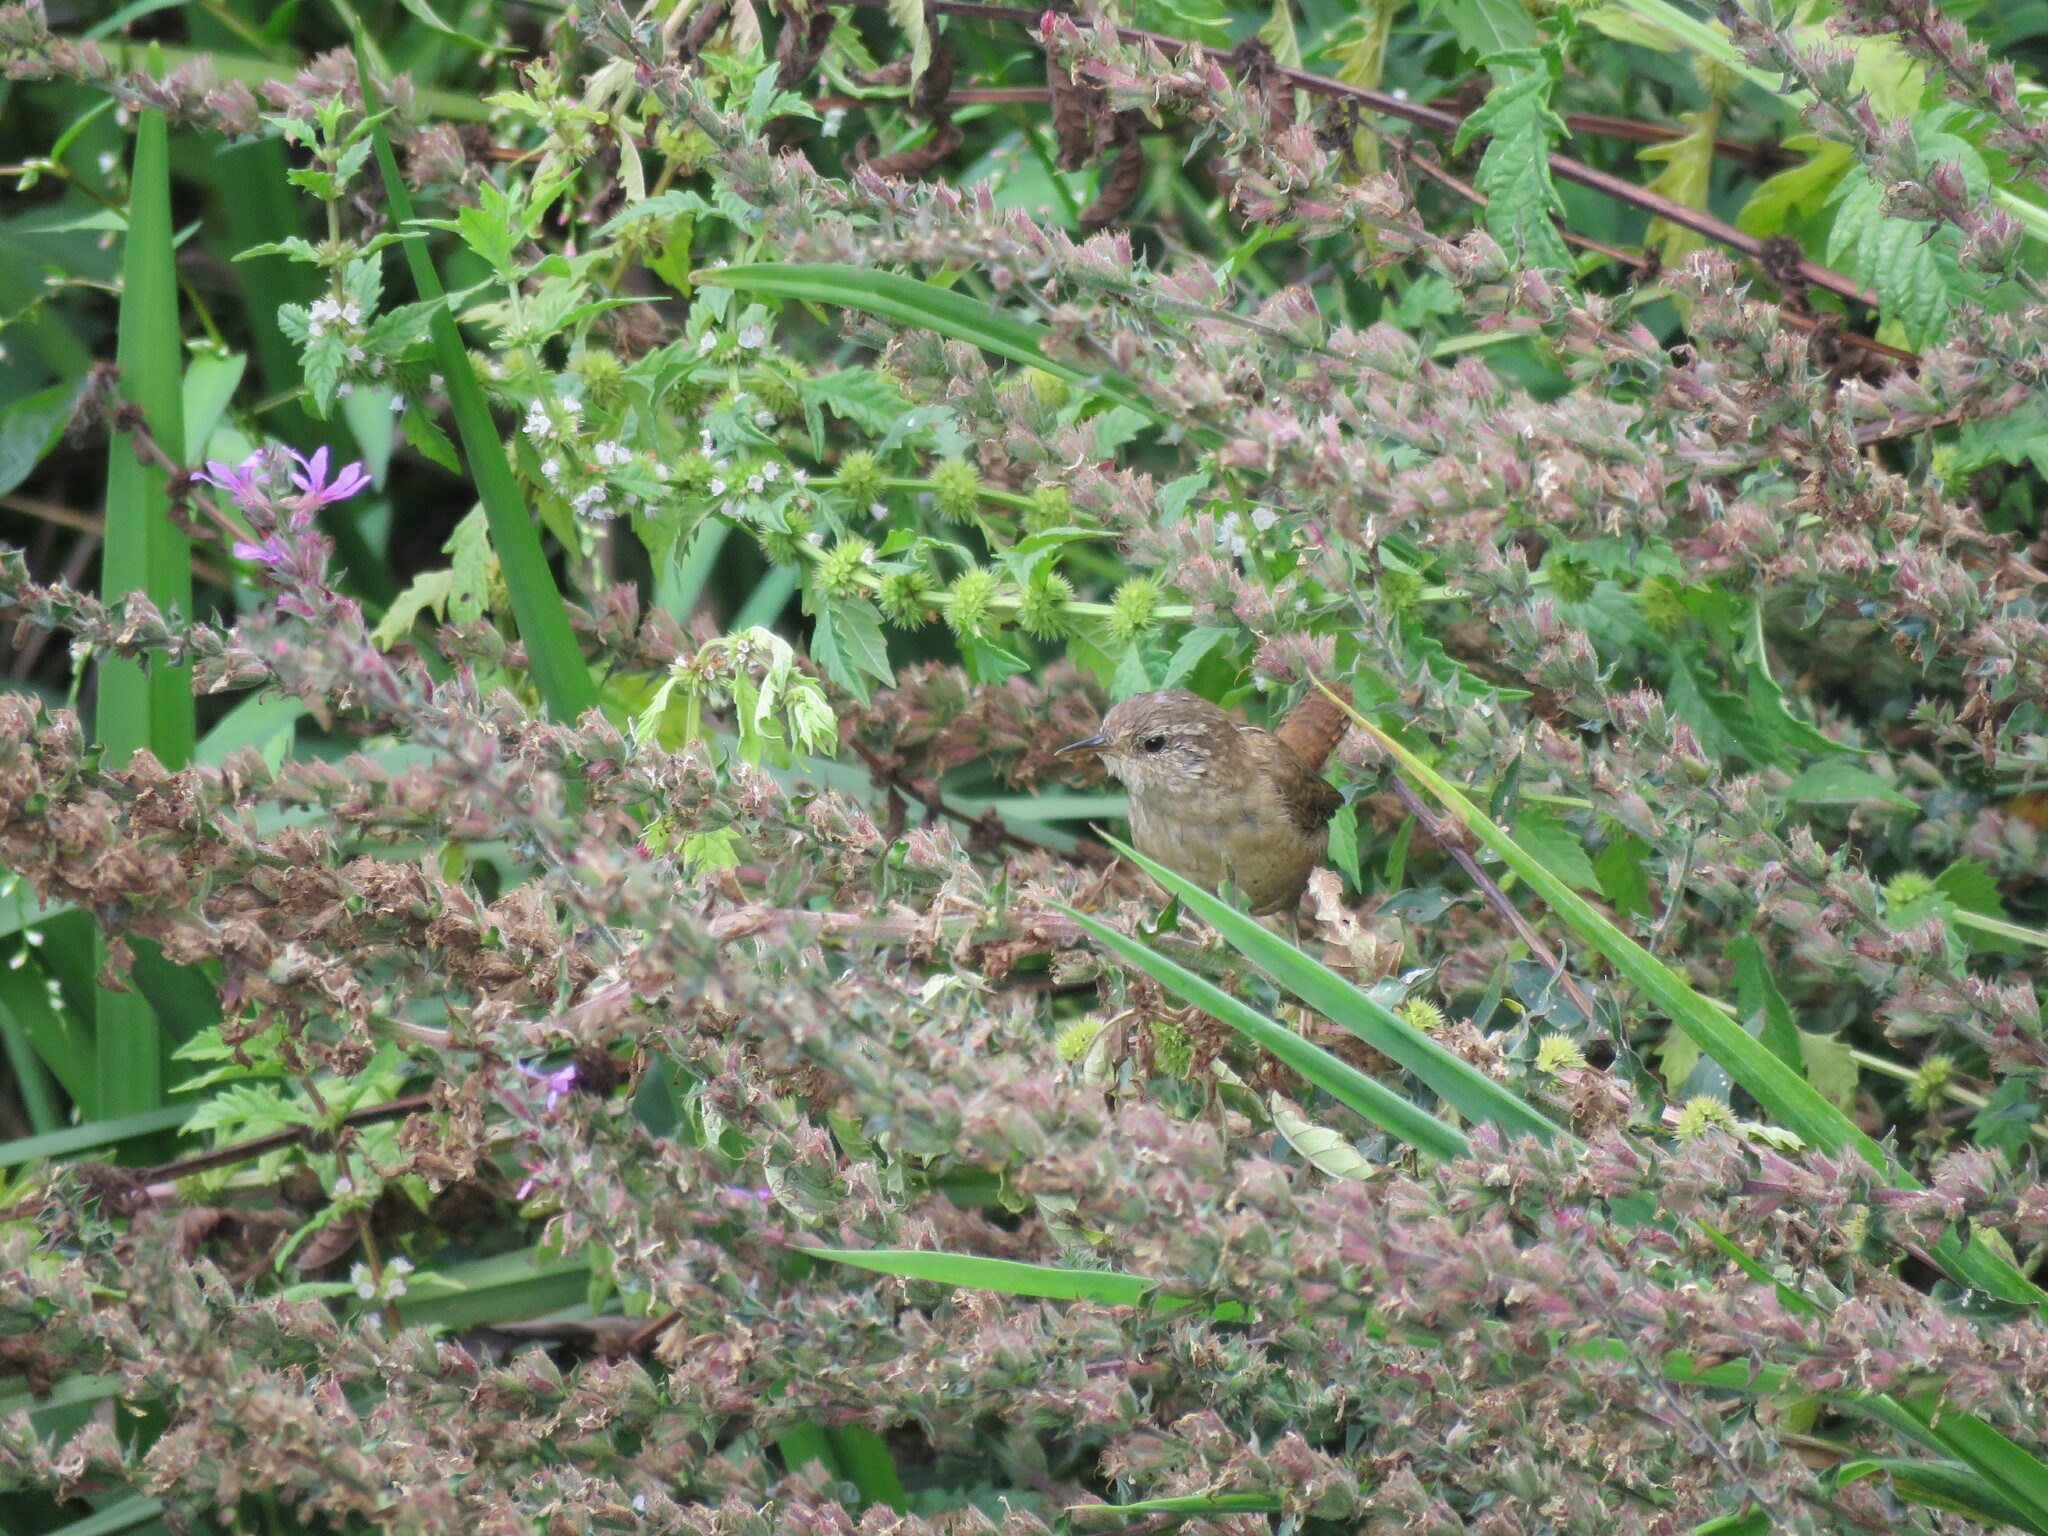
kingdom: Animalia
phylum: Chordata
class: Aves
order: Passeriformes
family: Troglodytidae
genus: Troglodytes
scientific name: Troglodytes troglodytes
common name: Eurasian wren
